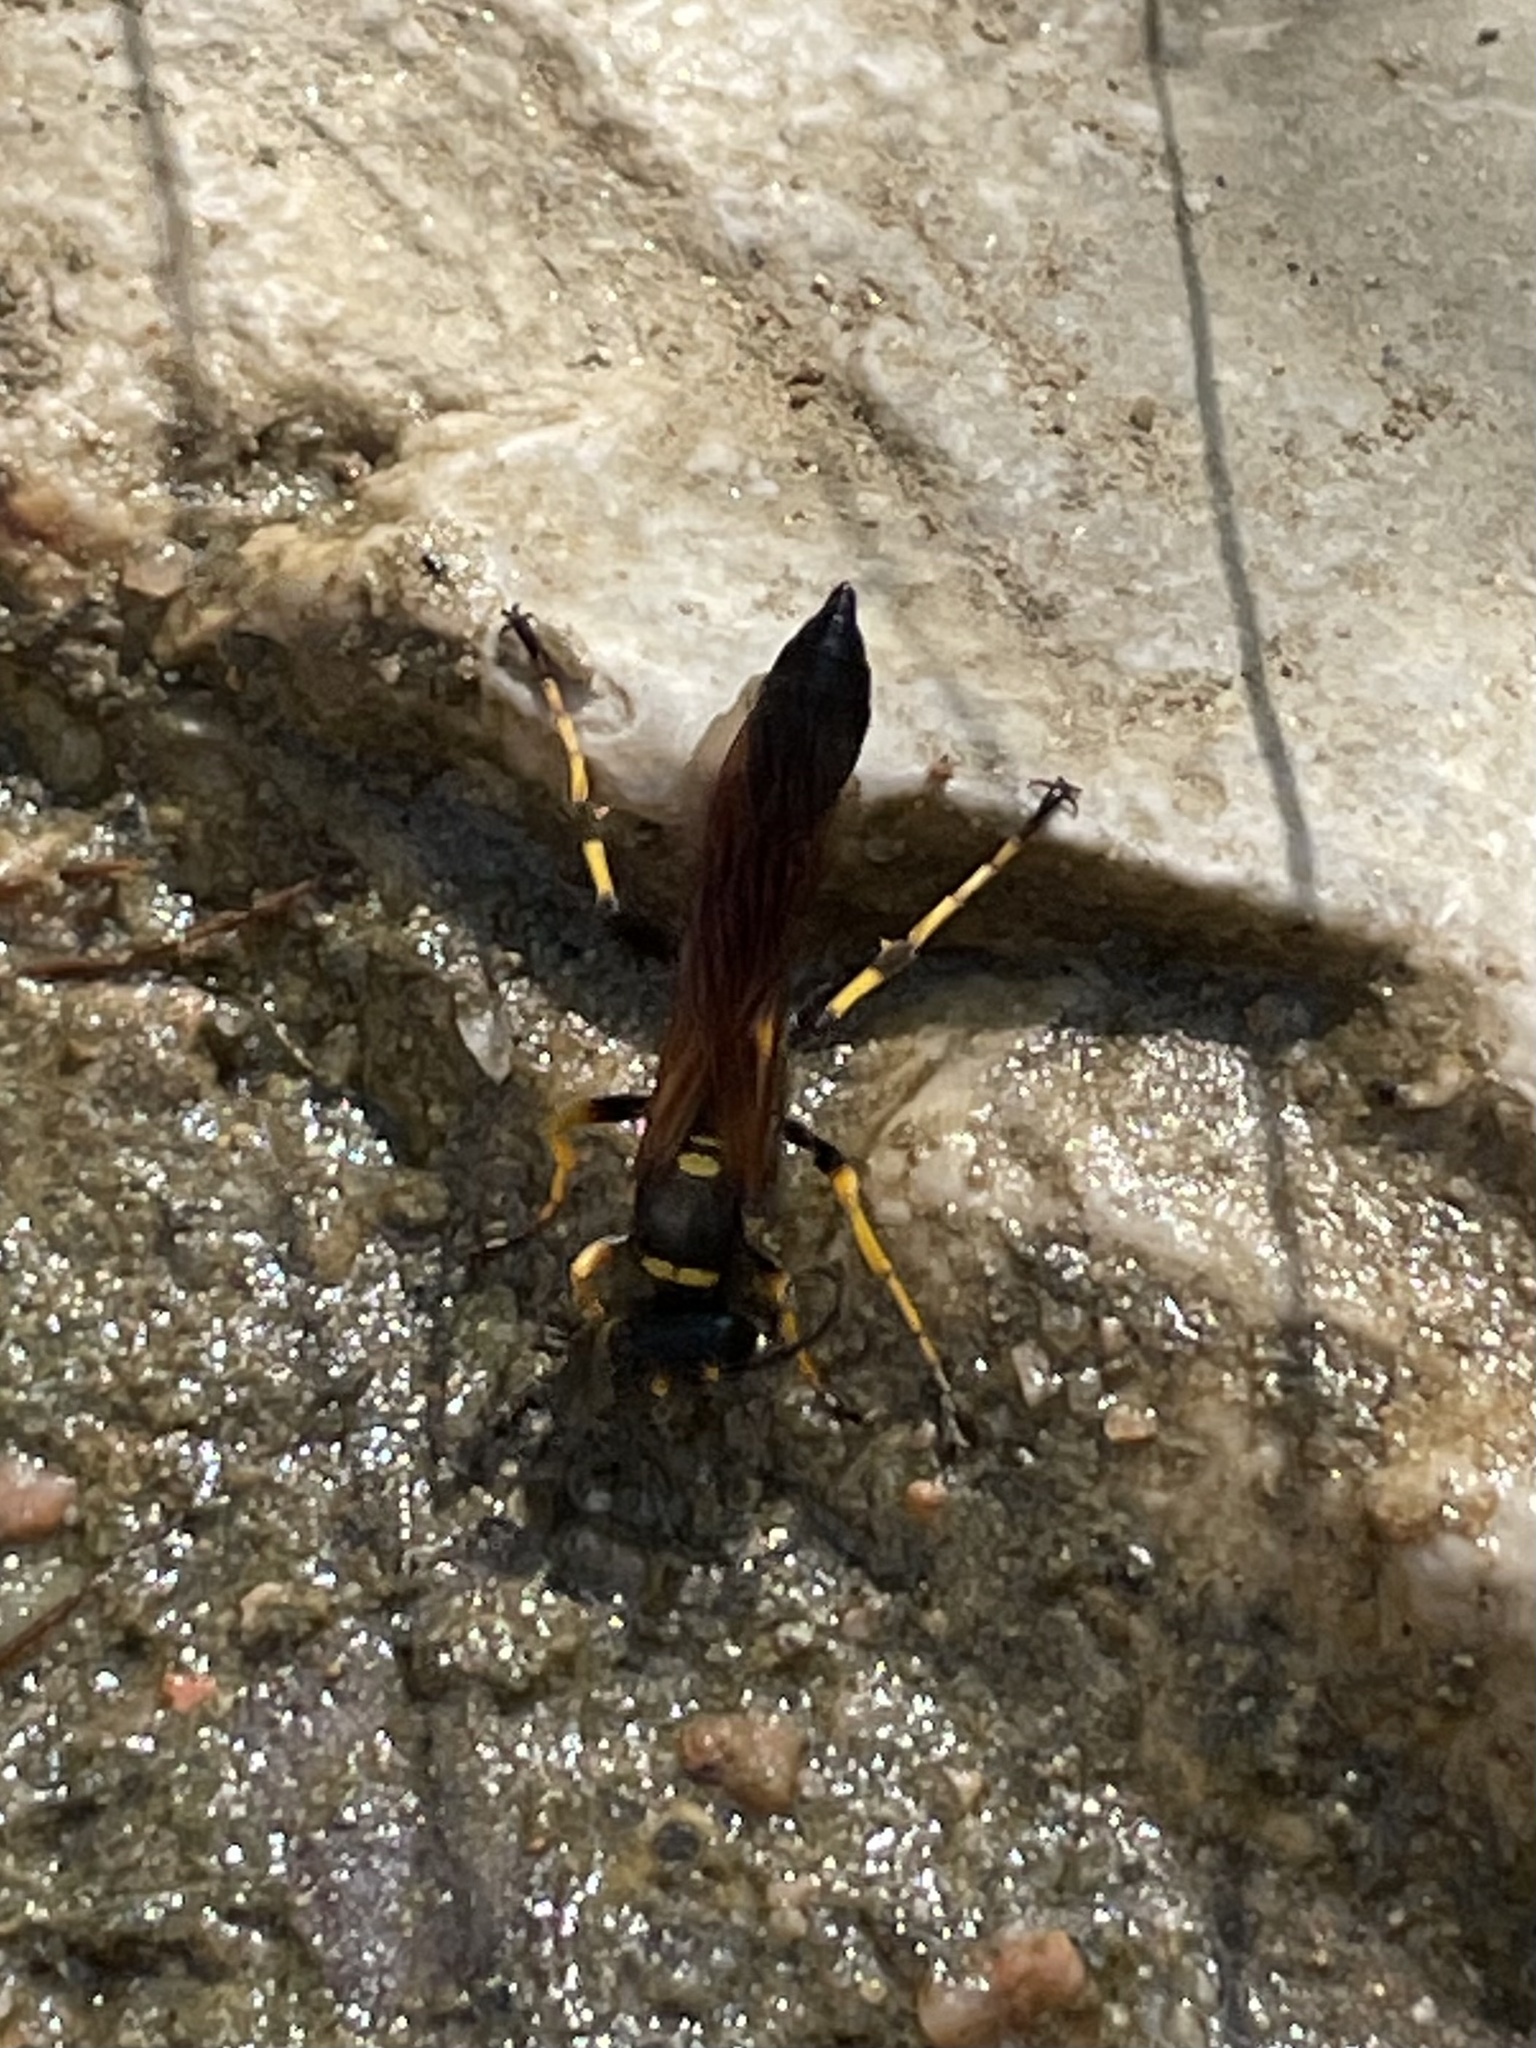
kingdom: Animalia
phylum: Arthropoda
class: Insecta
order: Hymenoptera
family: Sphecidae
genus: Sceliphron
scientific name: Sceliphron caementarium
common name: Mud dauber
